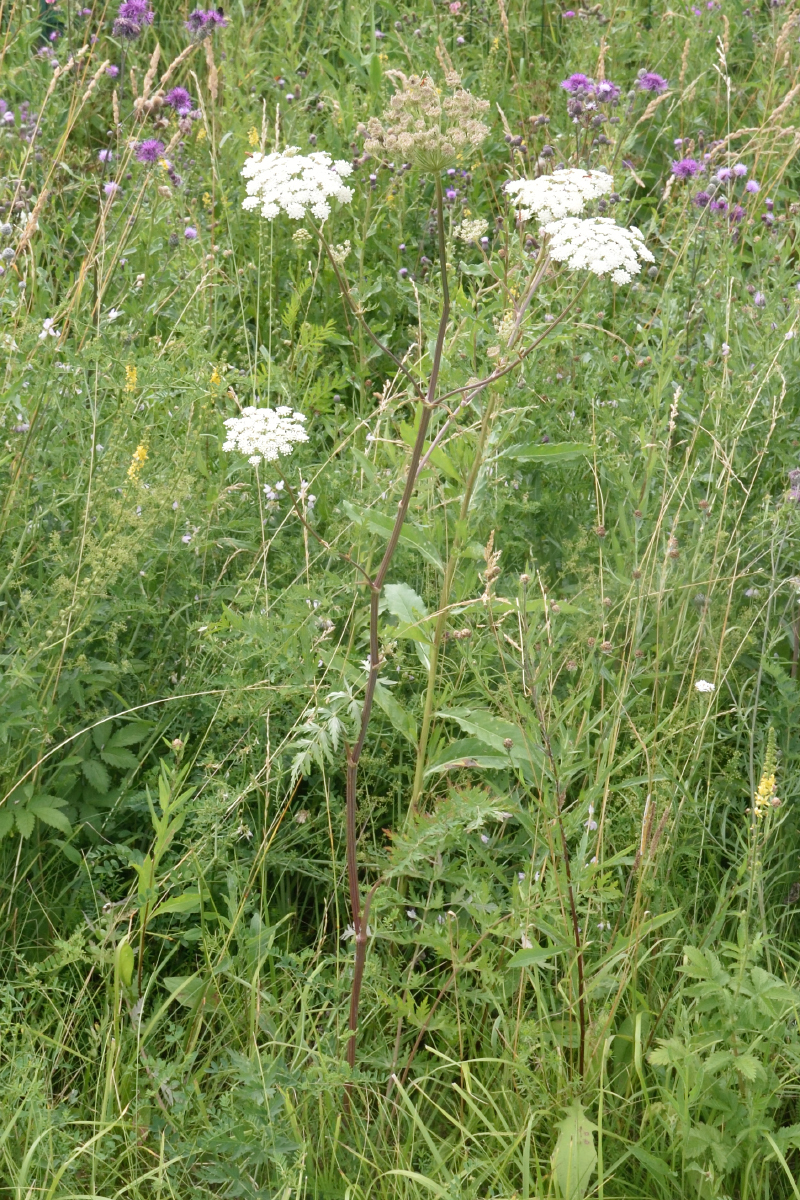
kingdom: Plantae
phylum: Tracheophyta
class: Magnoliopsida
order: Apiales
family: Apiaceae
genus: Seseli
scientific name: Seseli libanotis
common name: Mooncarrot
